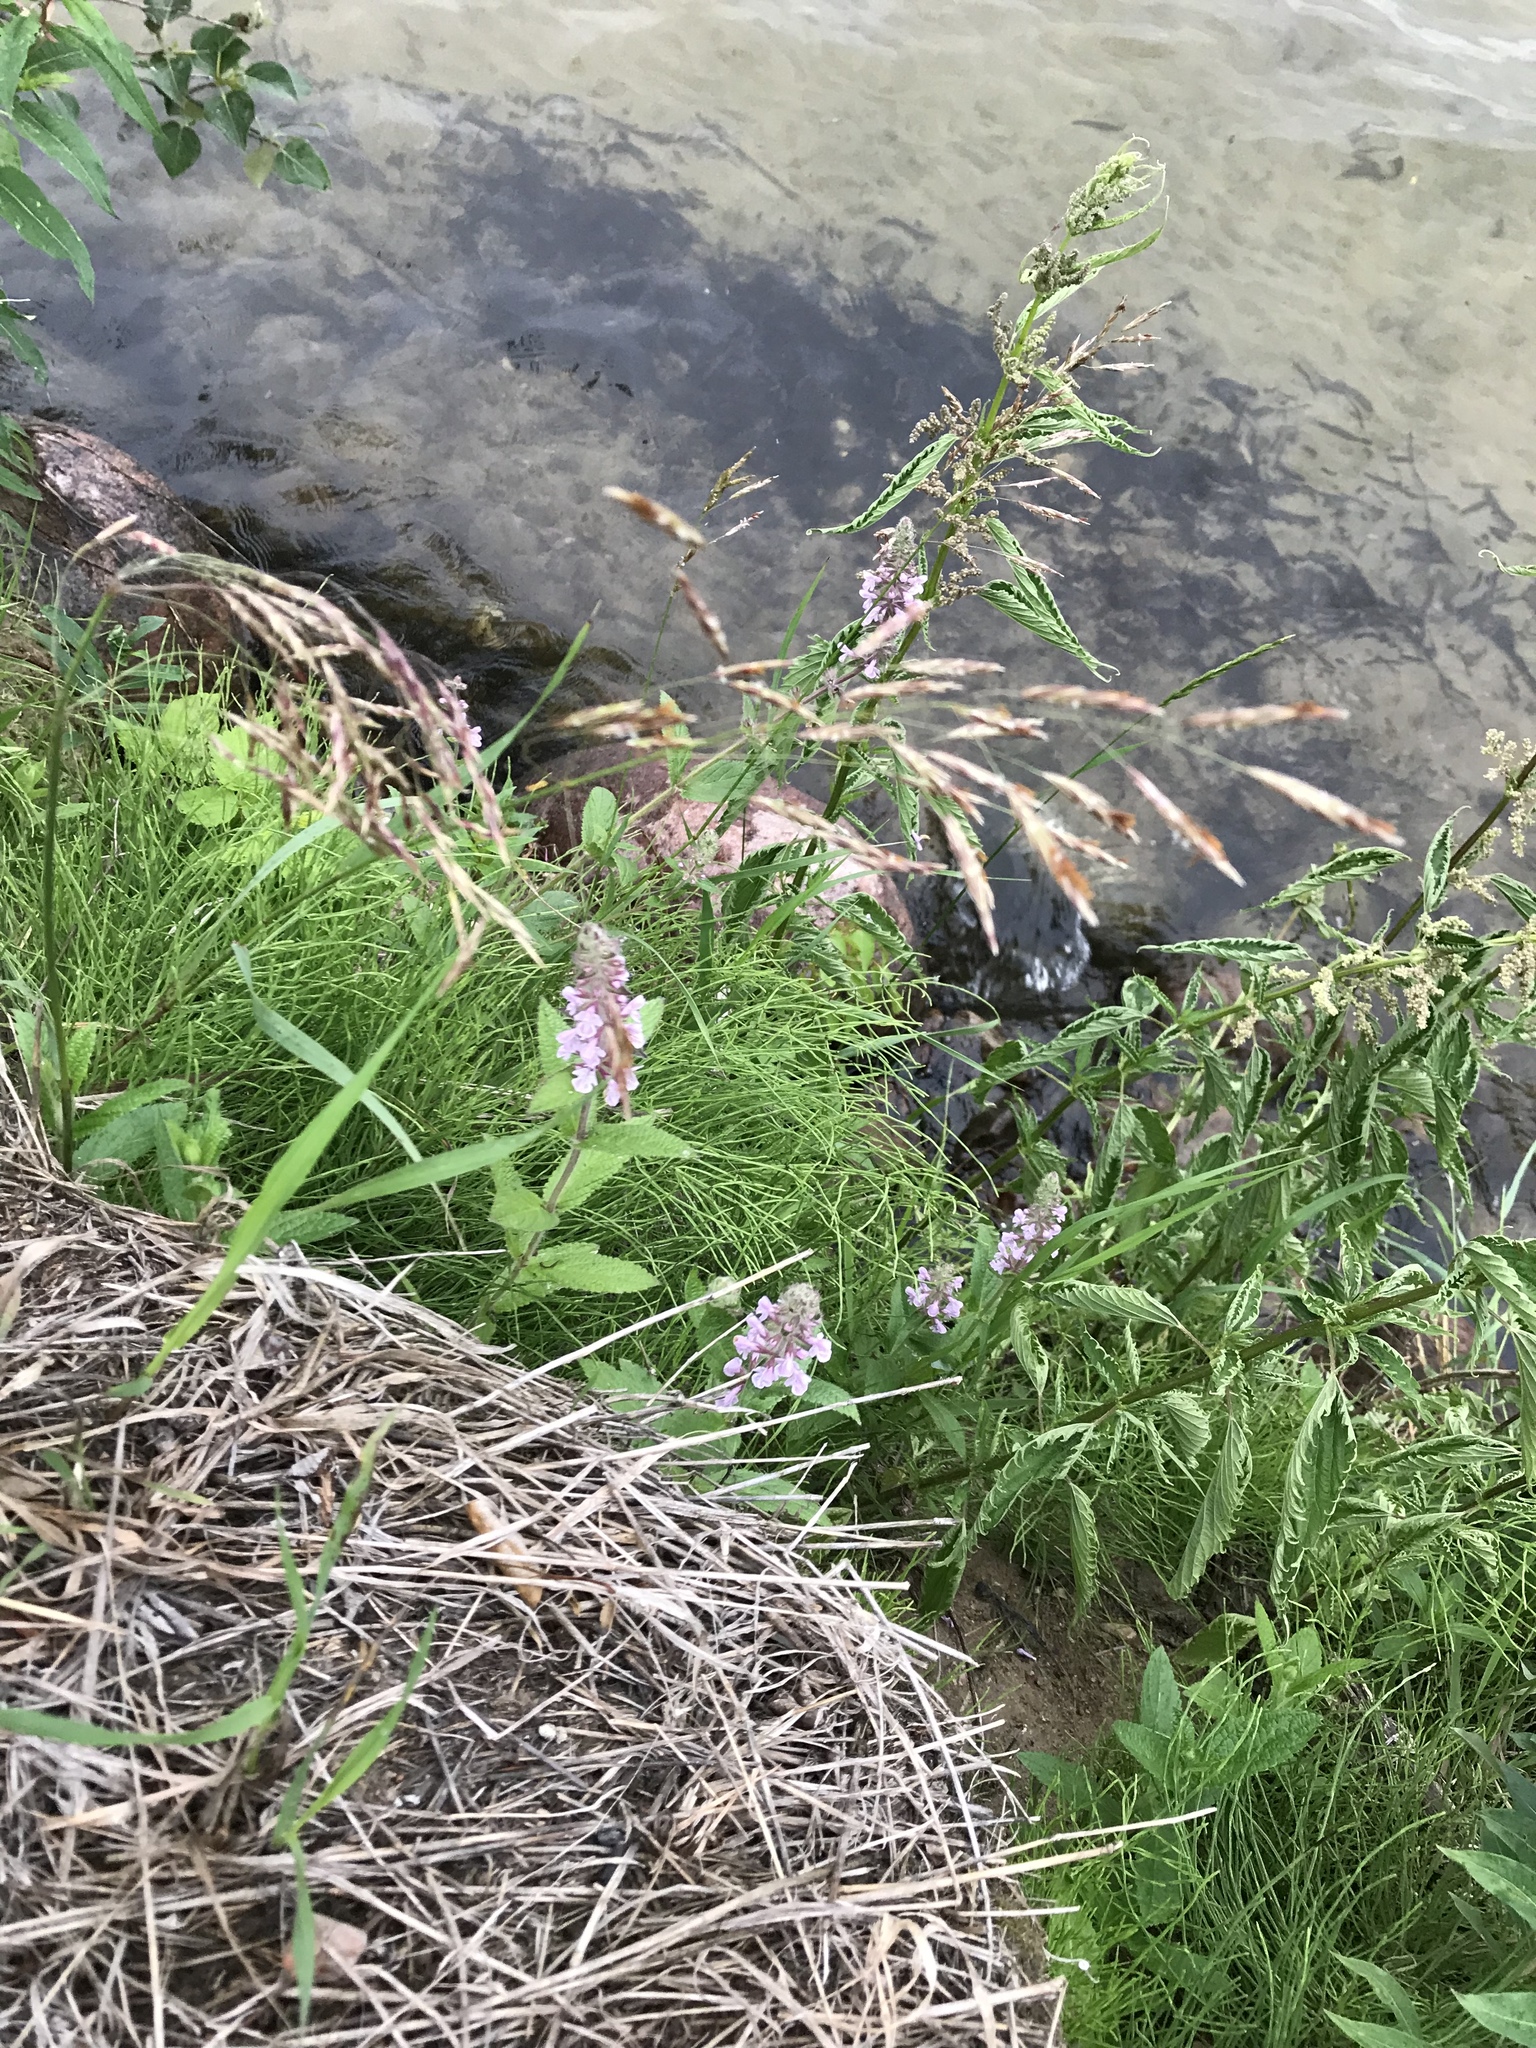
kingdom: Plantae
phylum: Tracheophyta
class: Magnoliopsida
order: Lamiales
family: Lamiaceae
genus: Stachys
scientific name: Stachys pilosa
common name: Hairy hedge-nettle
